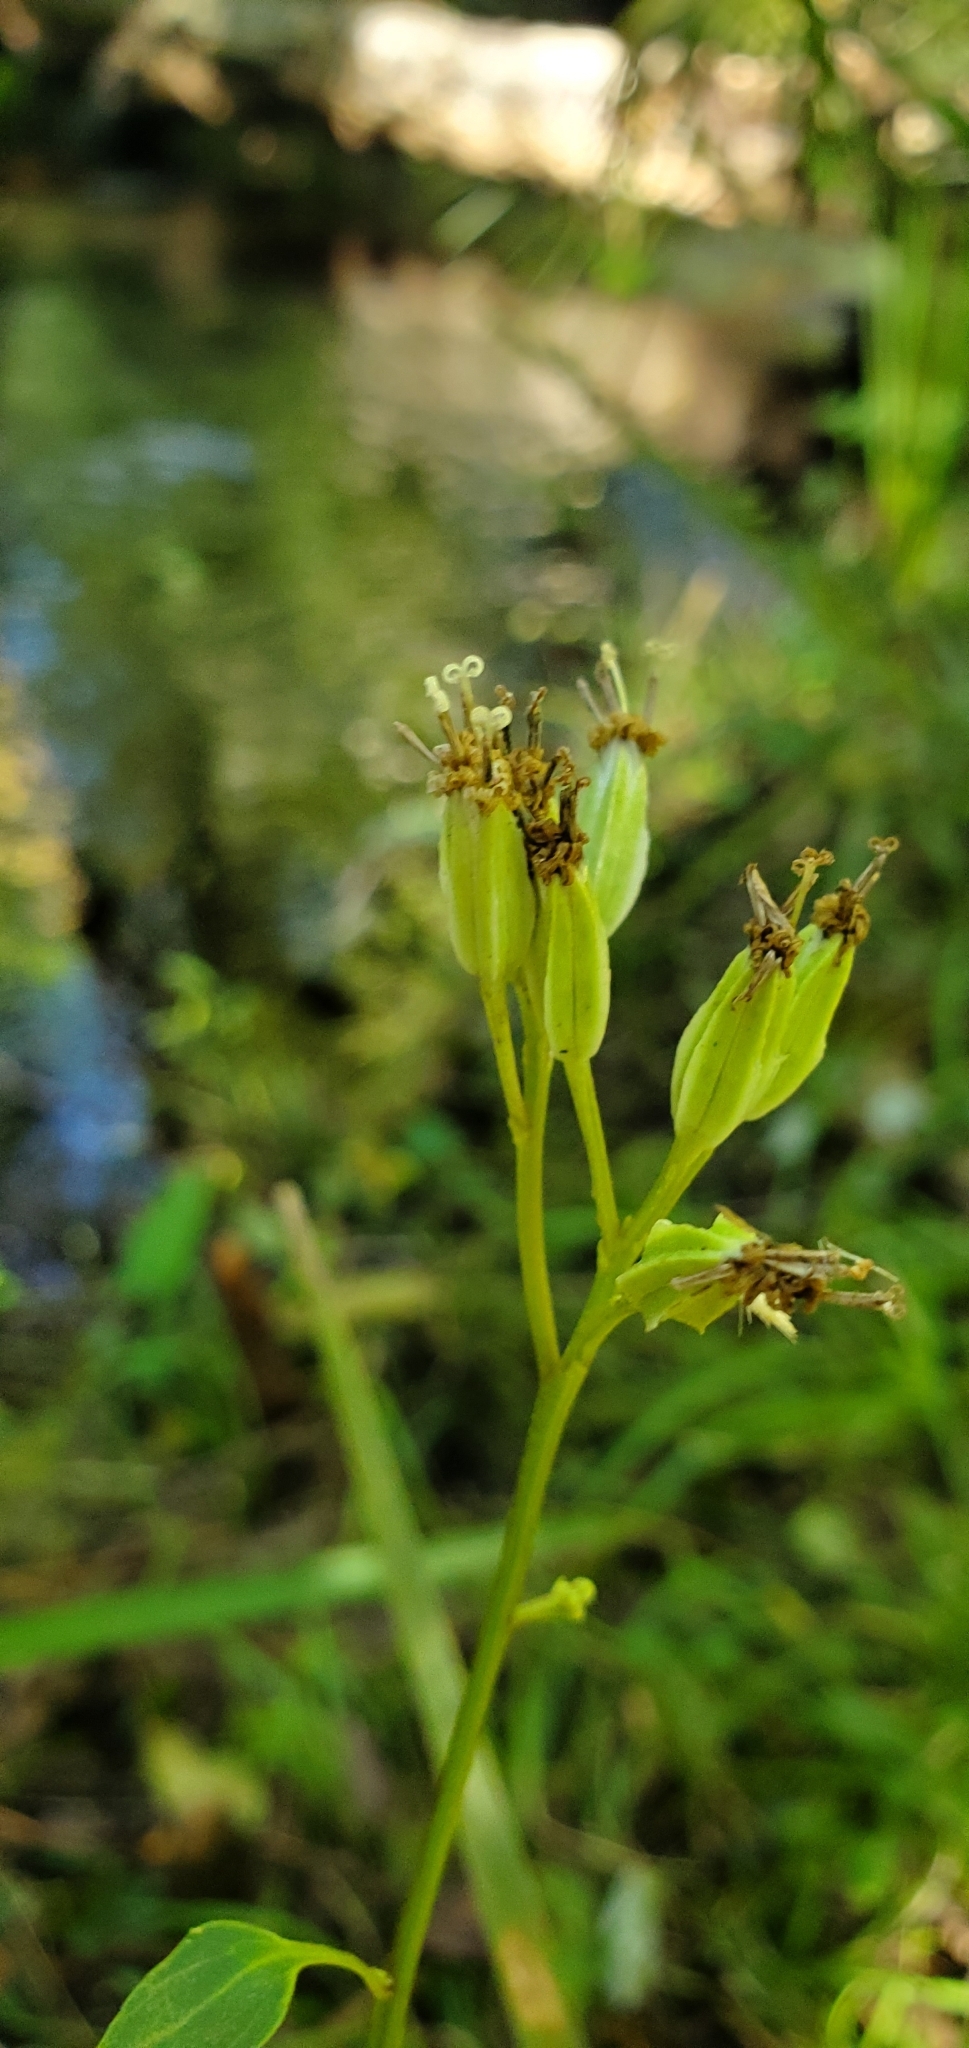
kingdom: Plantae
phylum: Tracheophyta
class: Magnoliopsida
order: Asterales
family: Asteraceae
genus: Arnoglossum
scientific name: Arnoglossum diversifolium
